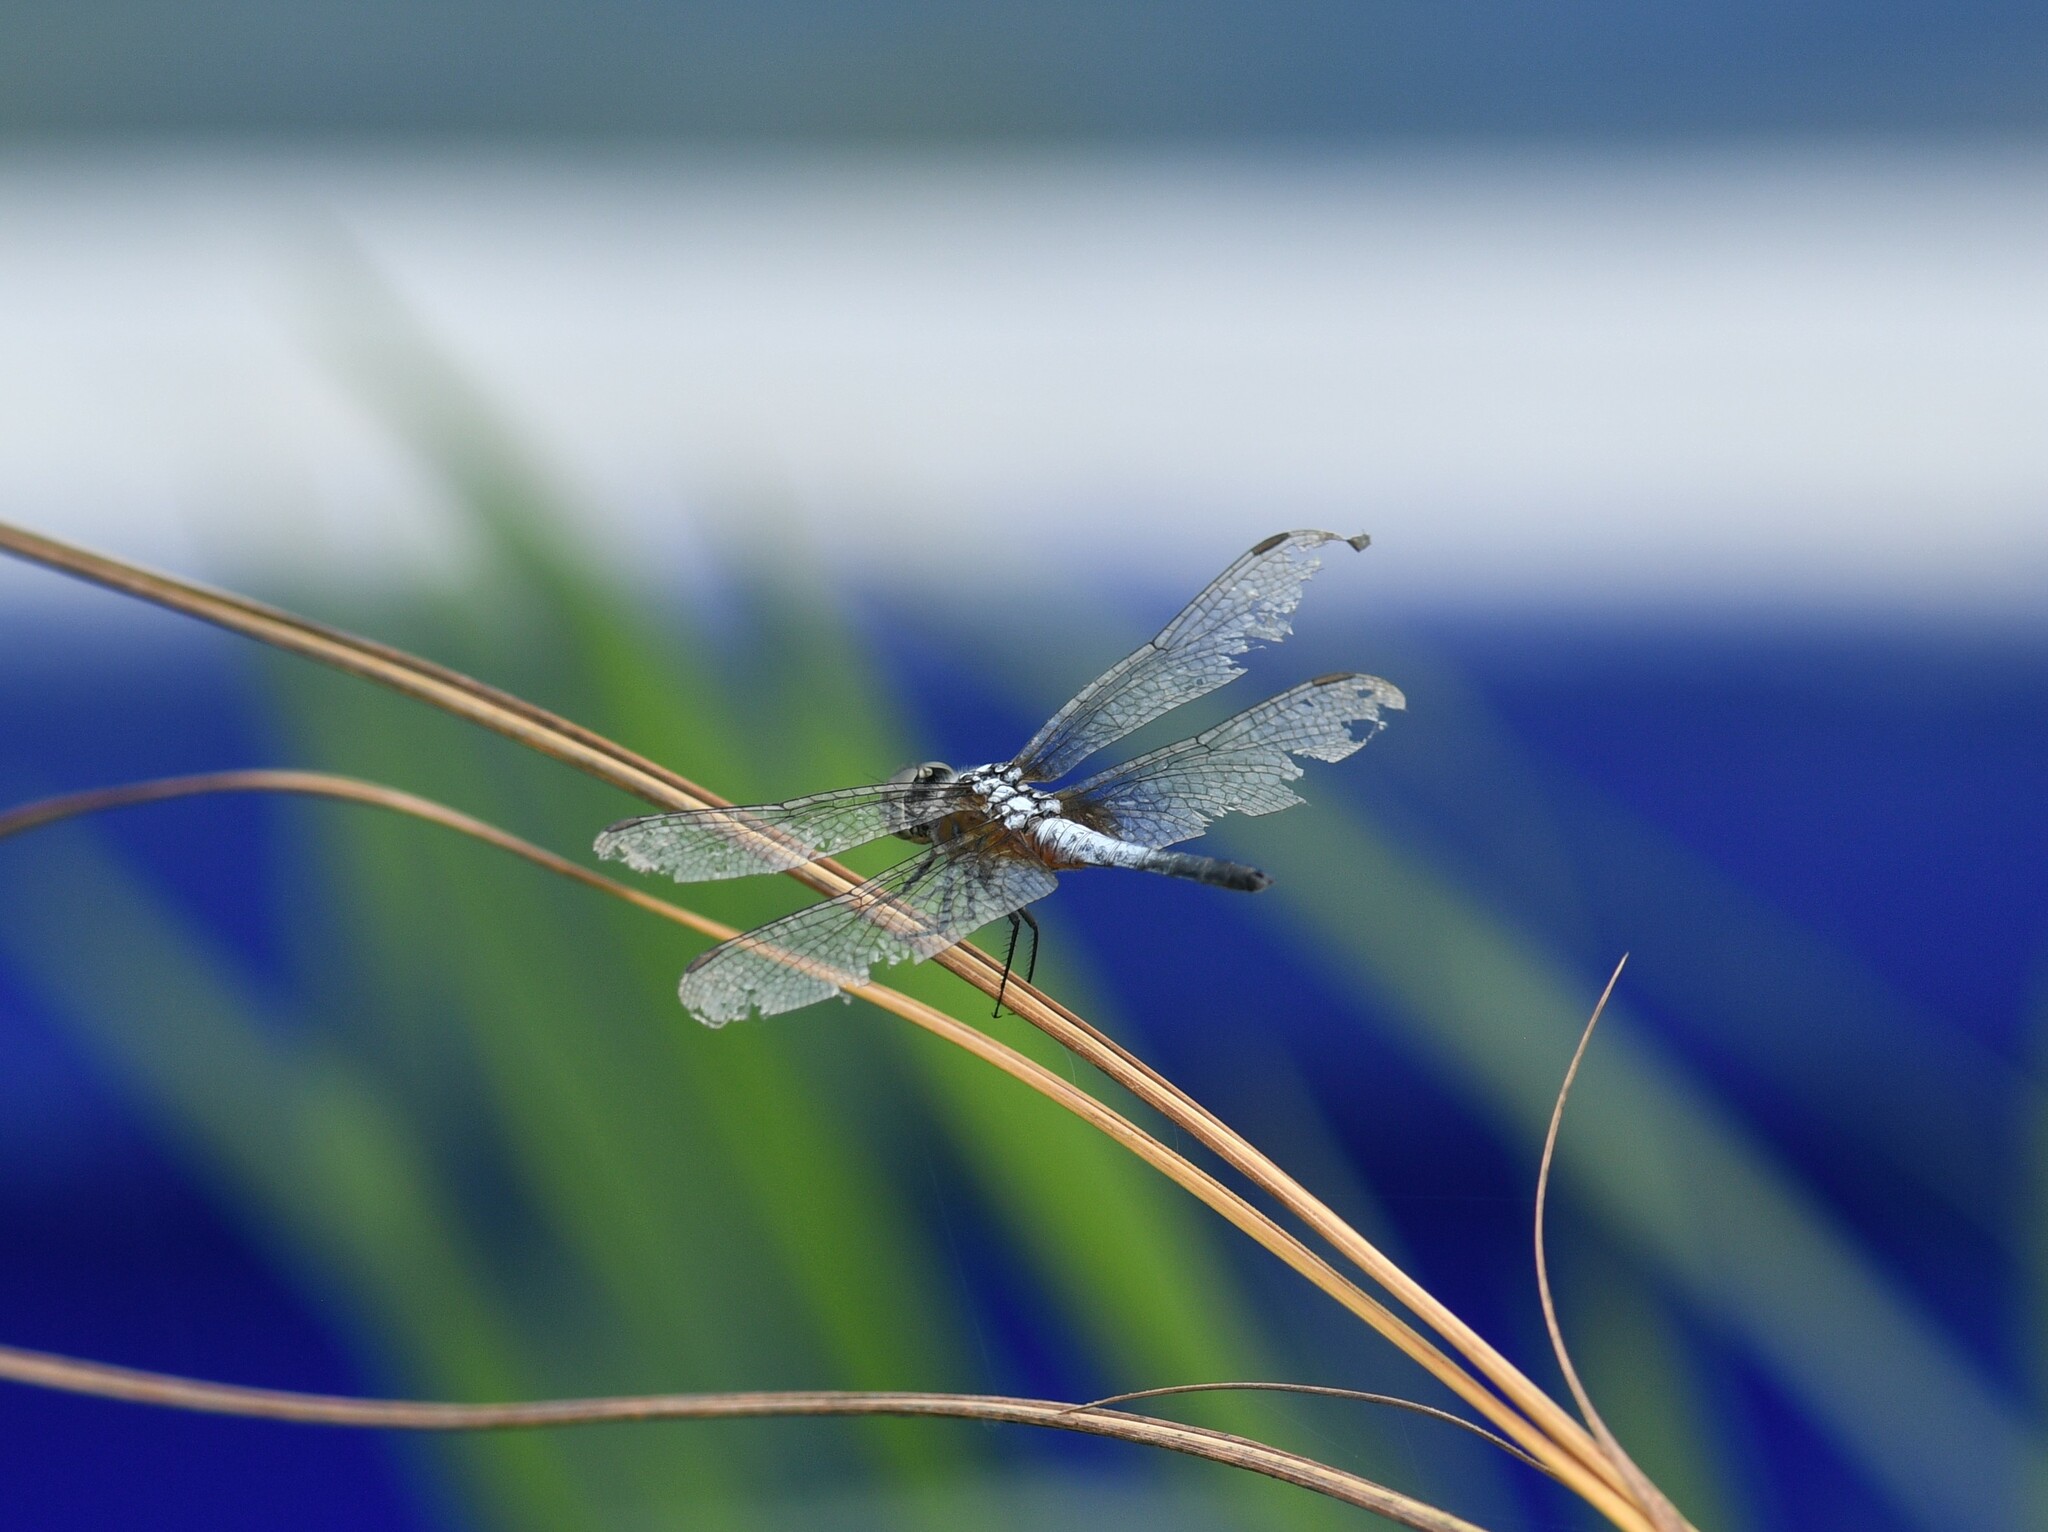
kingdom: Animalia
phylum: Arthropoda
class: Insecta
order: Odonata
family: Libellulidae
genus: Brachydiplax
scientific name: Brachydiplax chalybea
